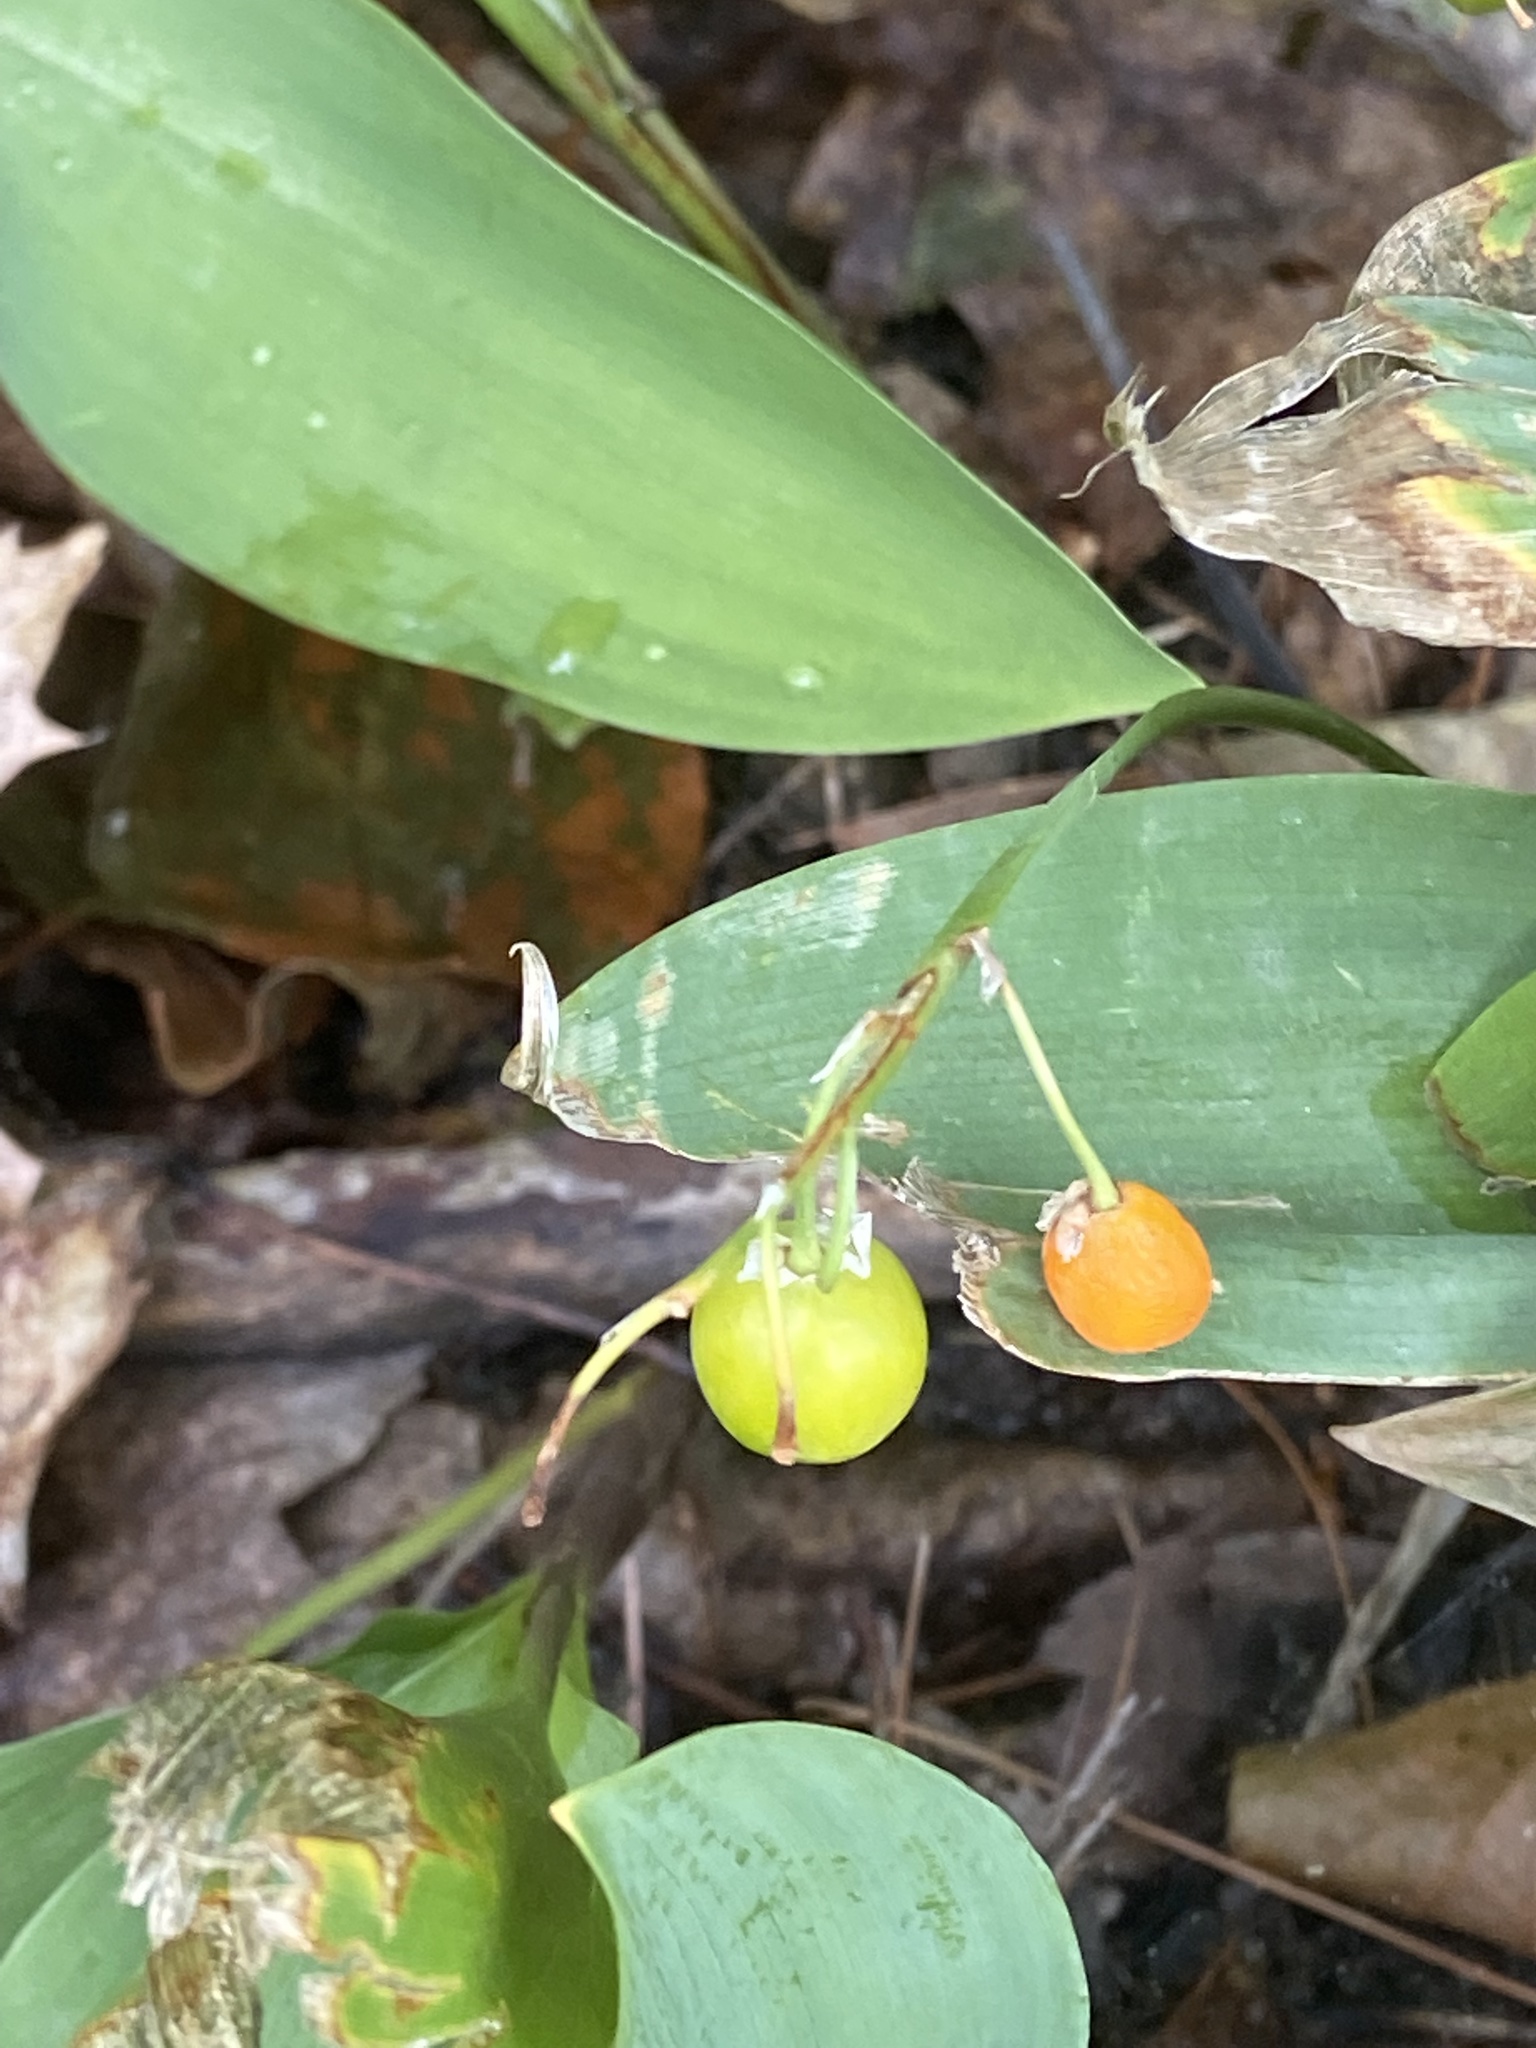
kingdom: Plantae
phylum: Tracheophyta
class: Liliopsida
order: Asparagales
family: Asparagaceae
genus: Convallaria
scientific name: Convallaria majalis
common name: Lily-of-the-valley
